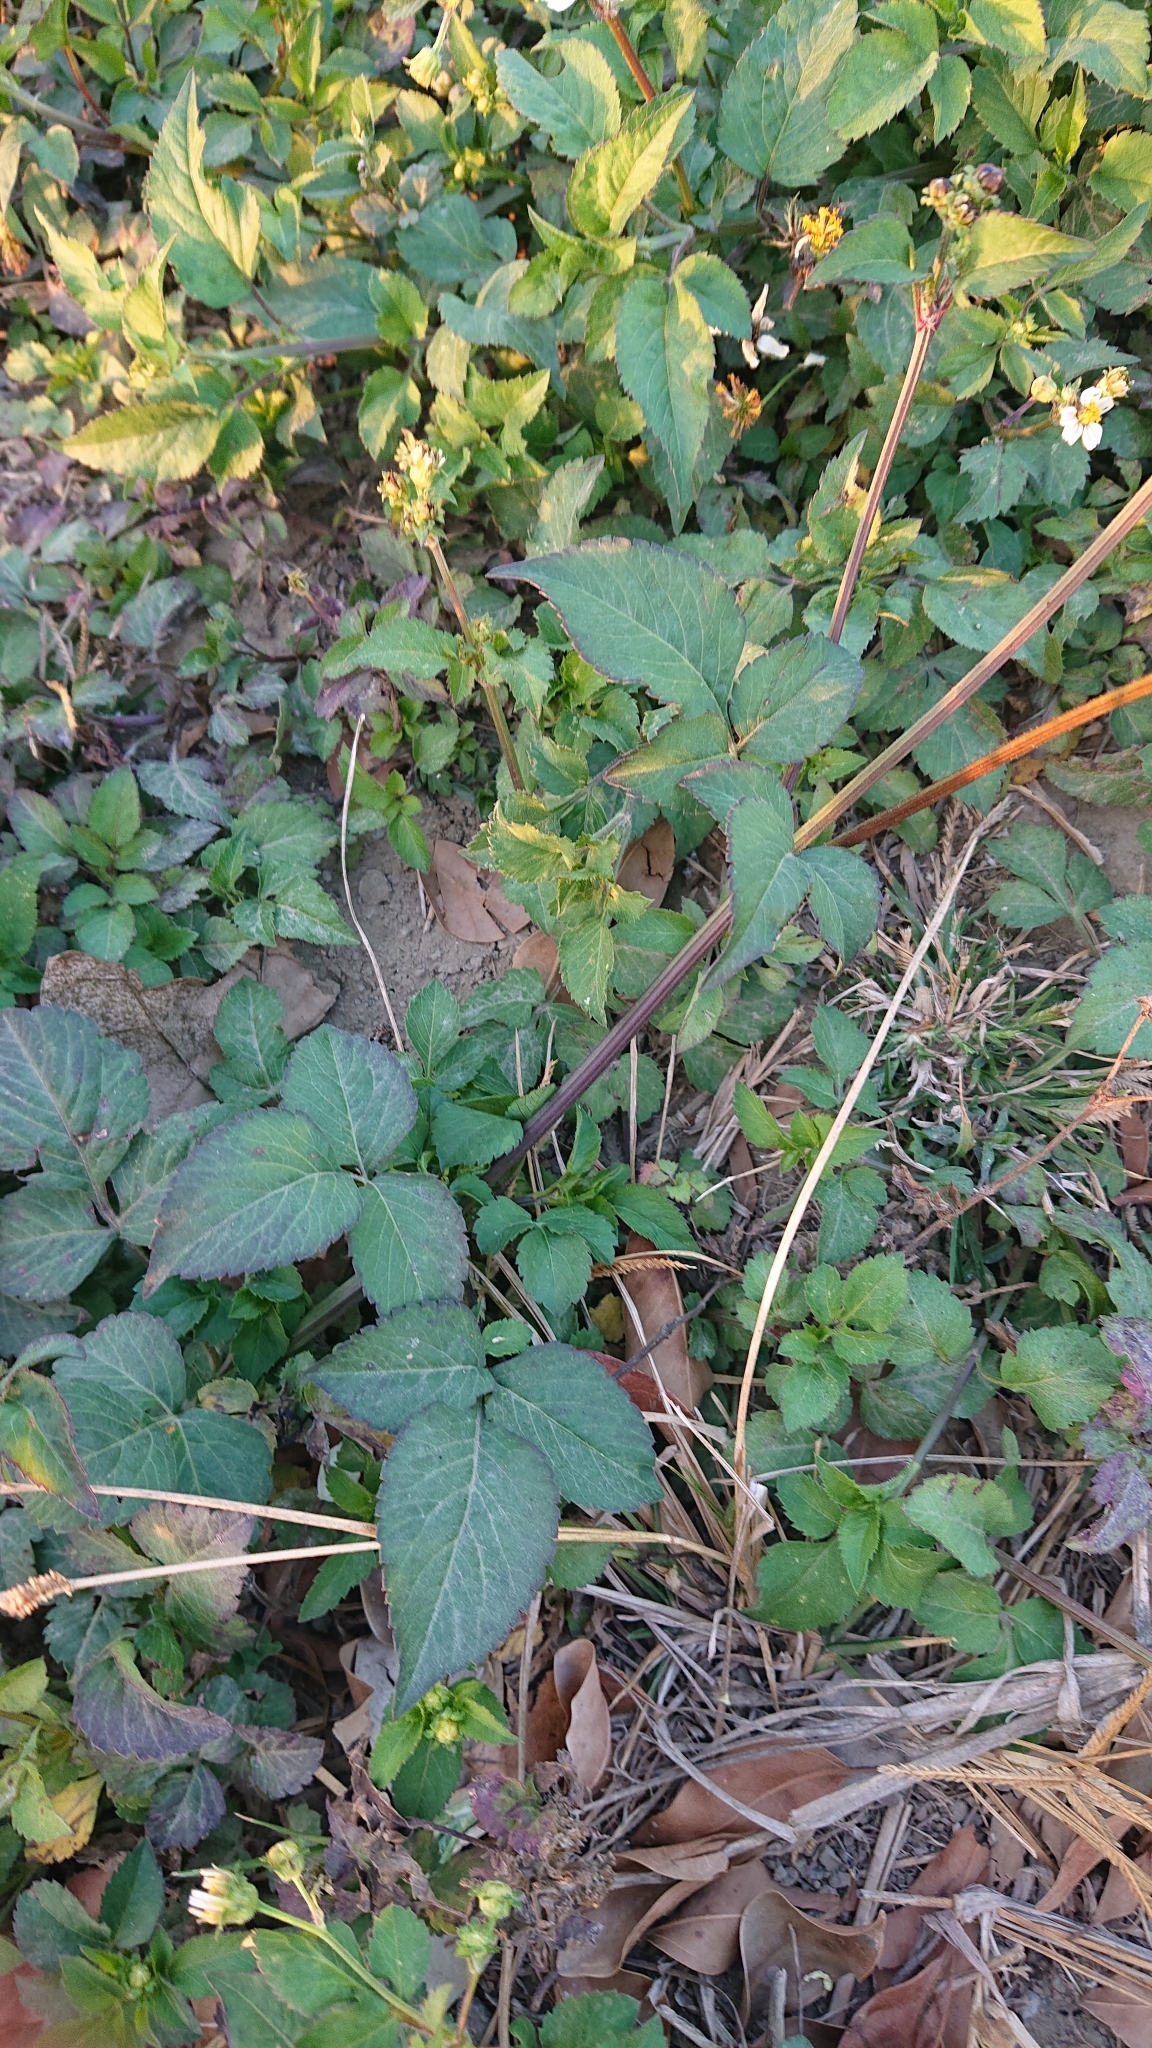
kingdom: Plantae
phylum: Tracheophyta
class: Magnoliopsida
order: Asterales
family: Asteraceae
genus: Bidens
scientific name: Bidens alba
